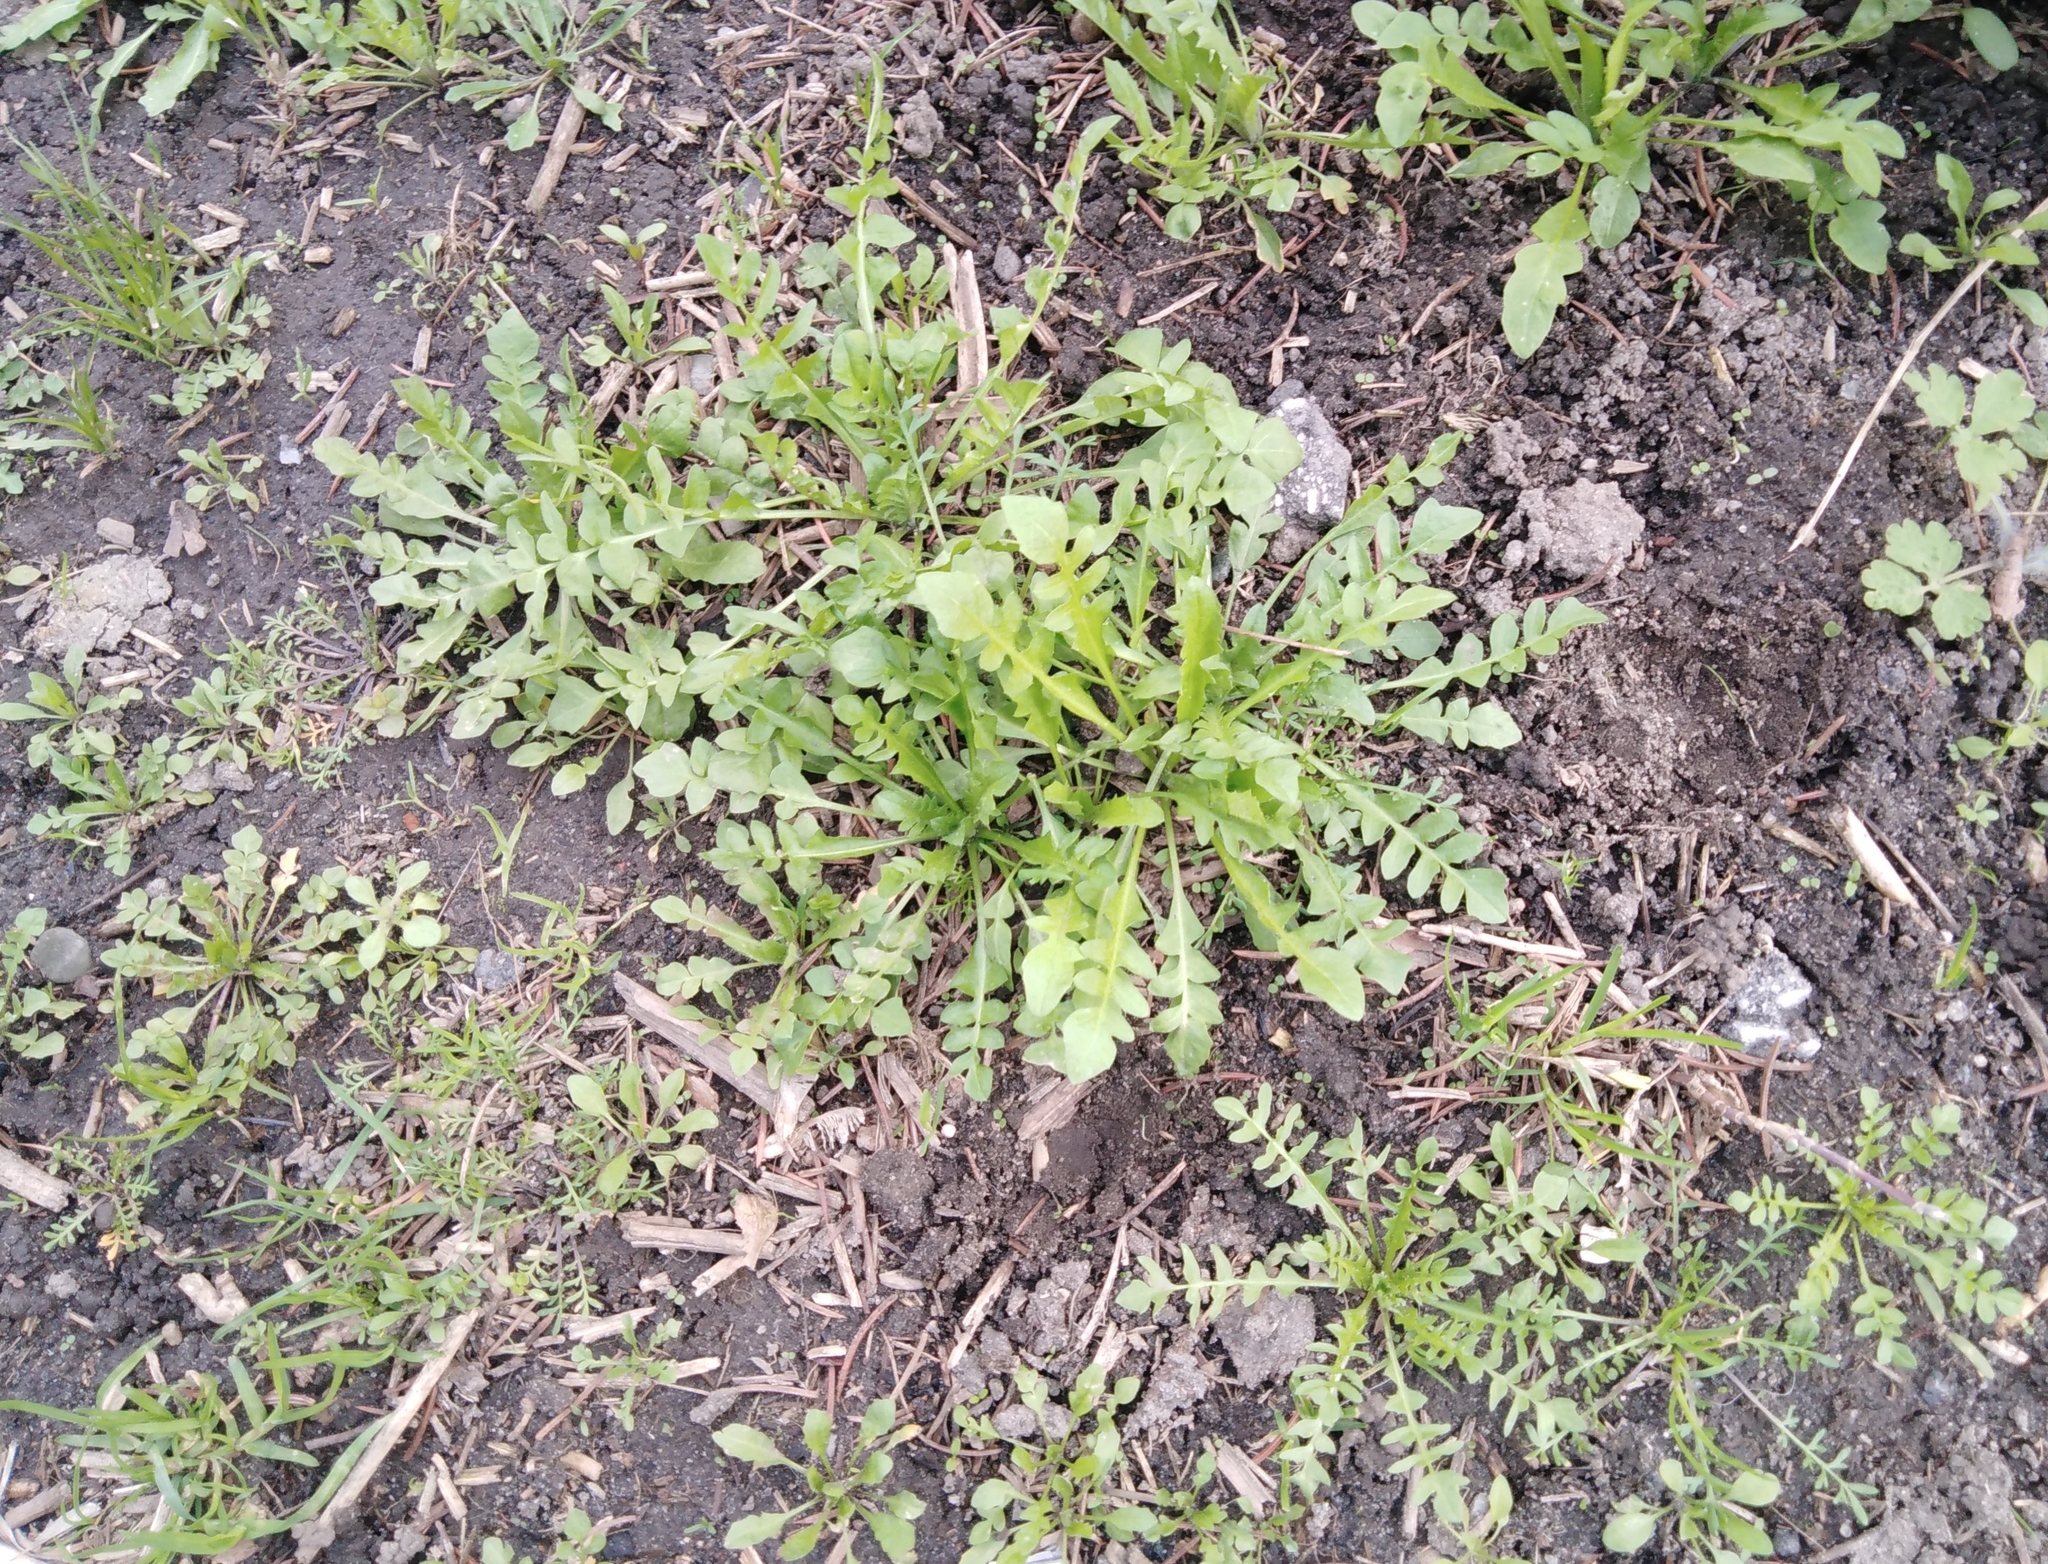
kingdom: Plantae
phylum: Tracheophyta
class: Magnoliopsida
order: Brassicales
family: Brassicaceae
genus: Capsella
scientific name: Capsella bursa-pastoris
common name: Shepherd's purse
